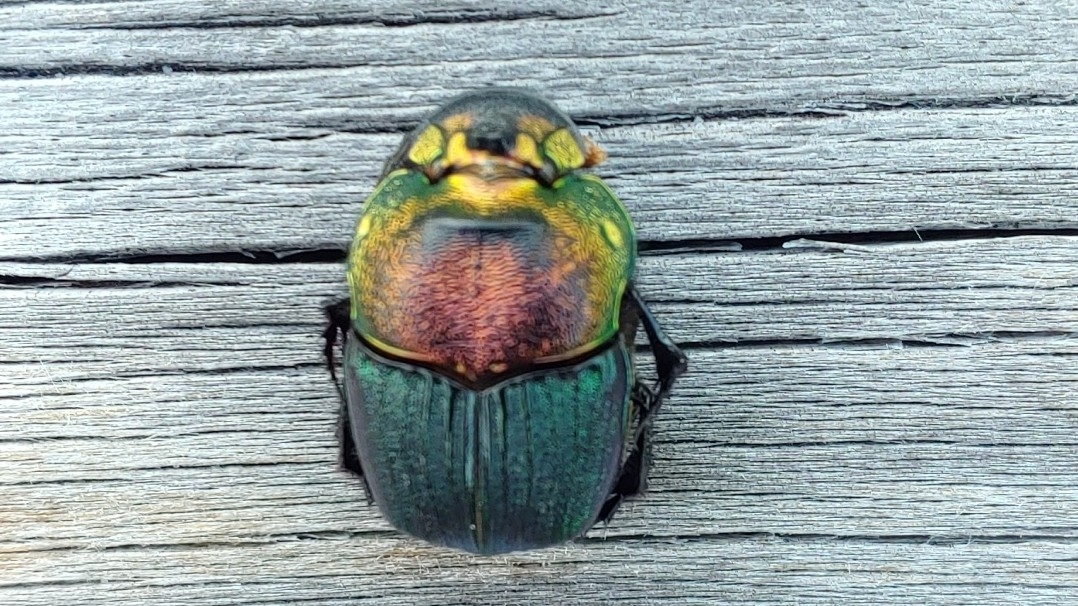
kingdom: Animalia
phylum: Arthropoda
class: Insecta
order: Coleoptera
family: Scarabaeidae
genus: Phanaeus
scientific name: Phanaeus vindex
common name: Rainbow scarab
